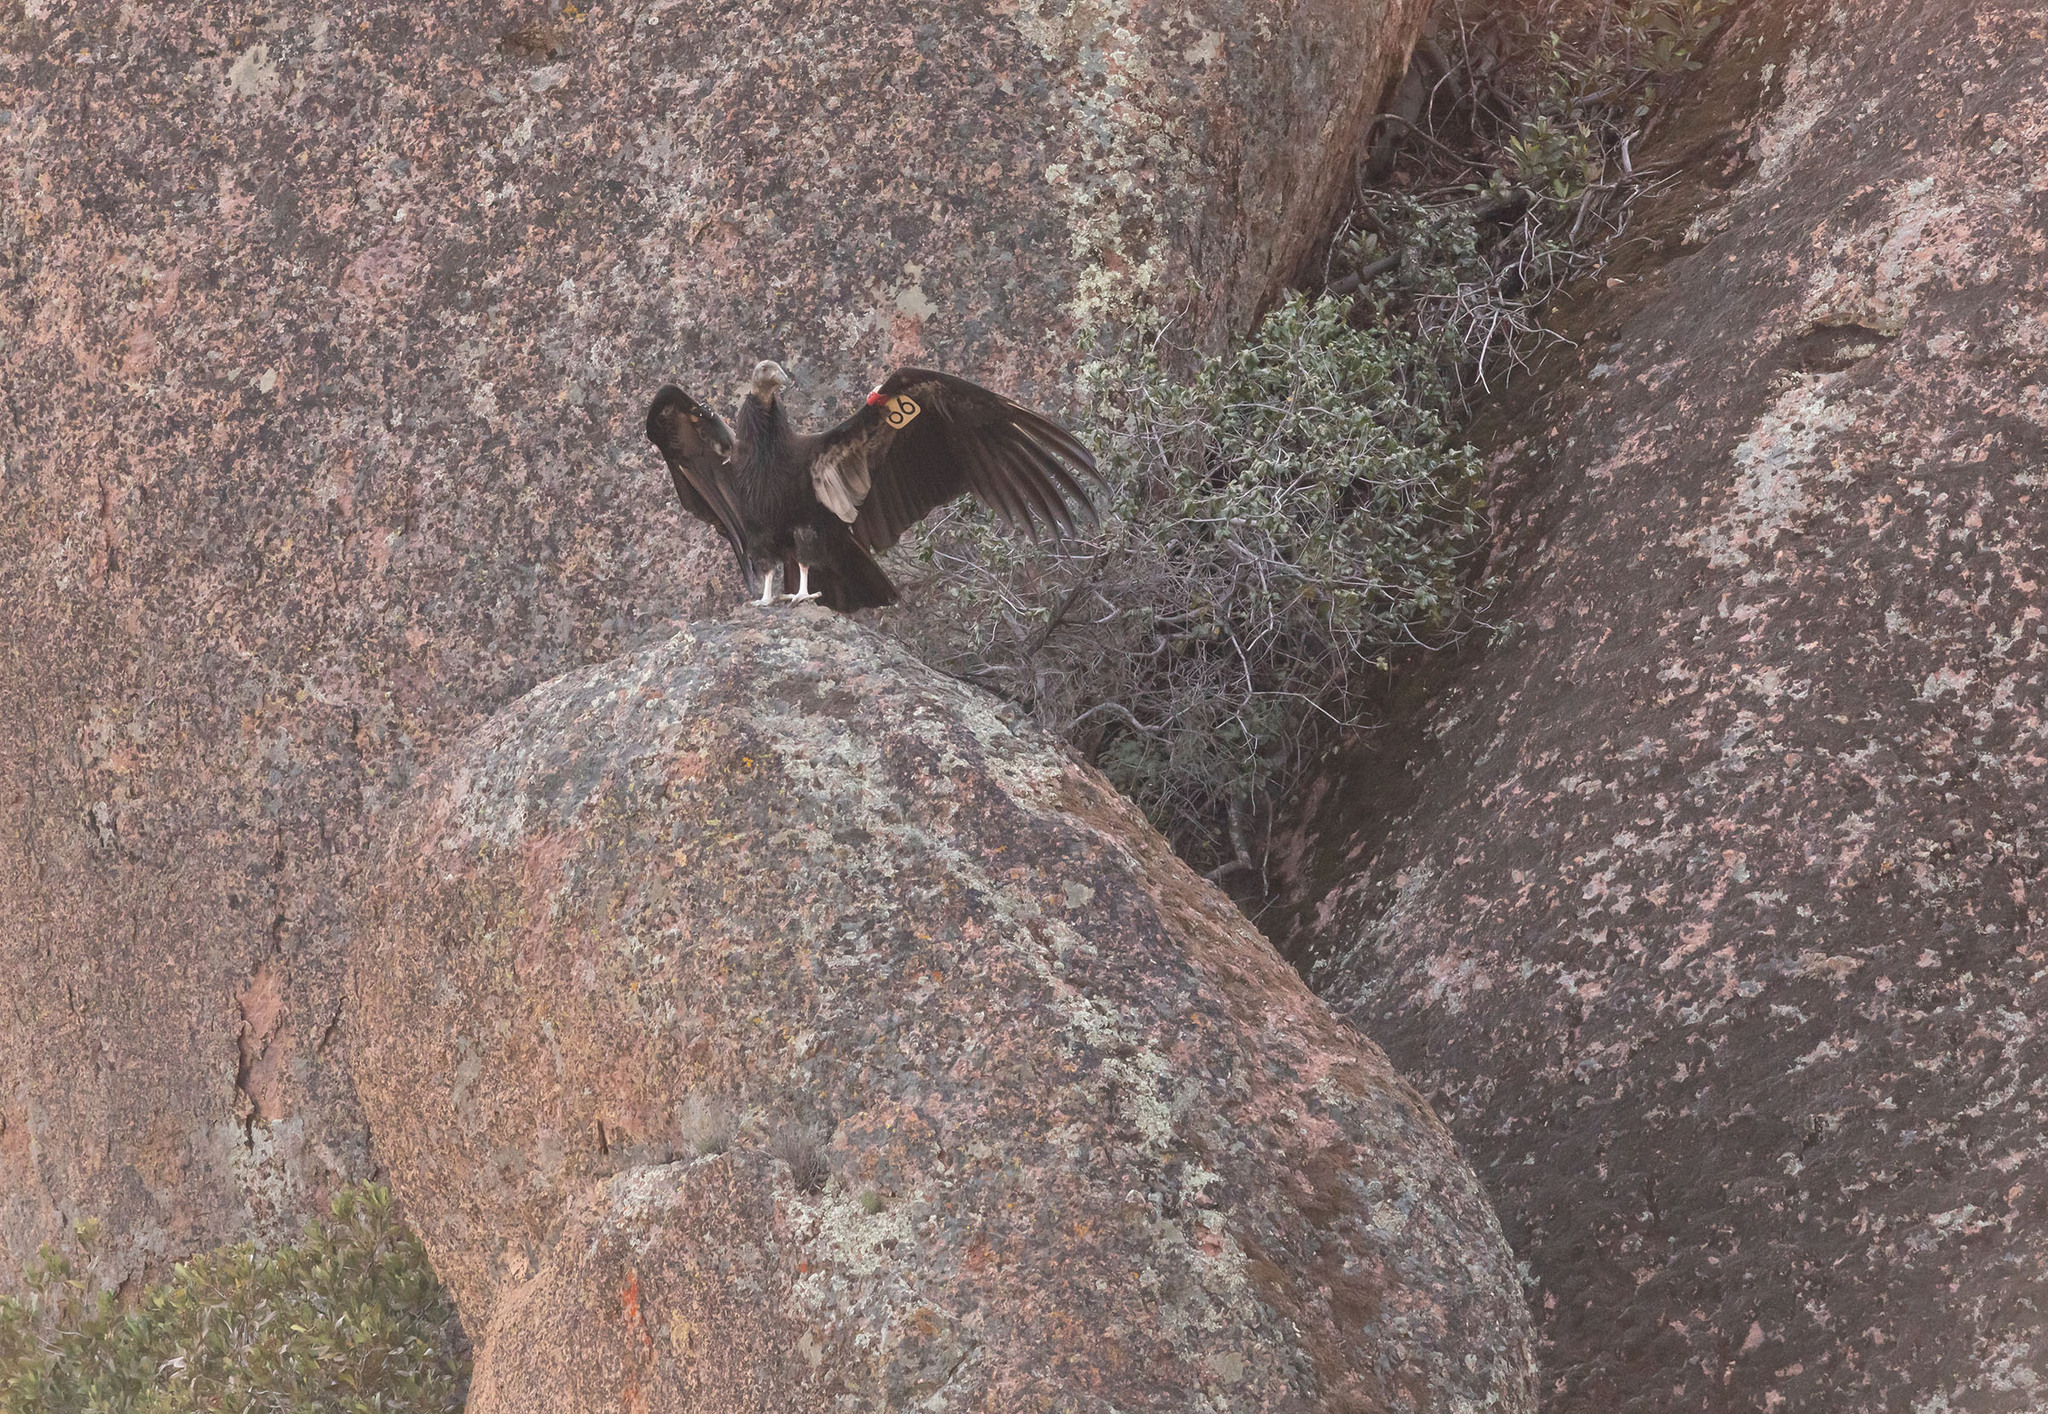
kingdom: Animalia
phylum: Chordata
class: Aves
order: Accipitriformes
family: Cathartidae
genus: Gymnogyps
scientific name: Gymnogyps californianus
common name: California condor
